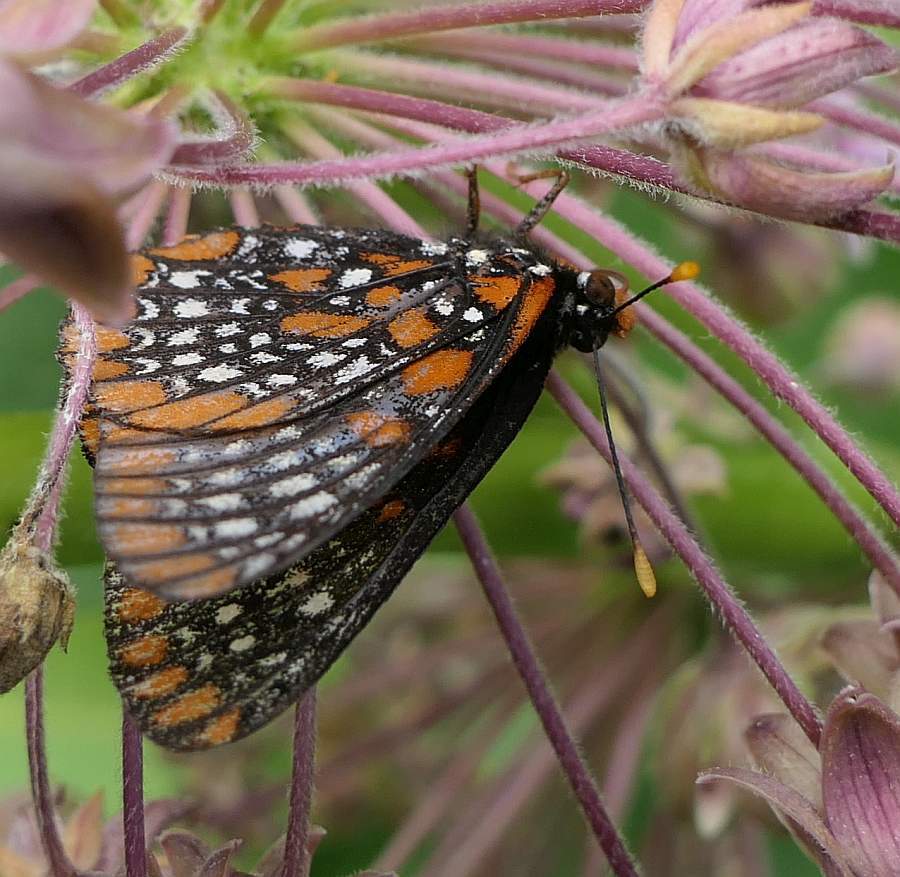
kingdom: Animalia
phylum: Arthropoda
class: Insecta
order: Lepidoptera
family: Nymphalidae
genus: Euphydryas
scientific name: Euphydryas phaeton
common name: Baltimore checkerspot
